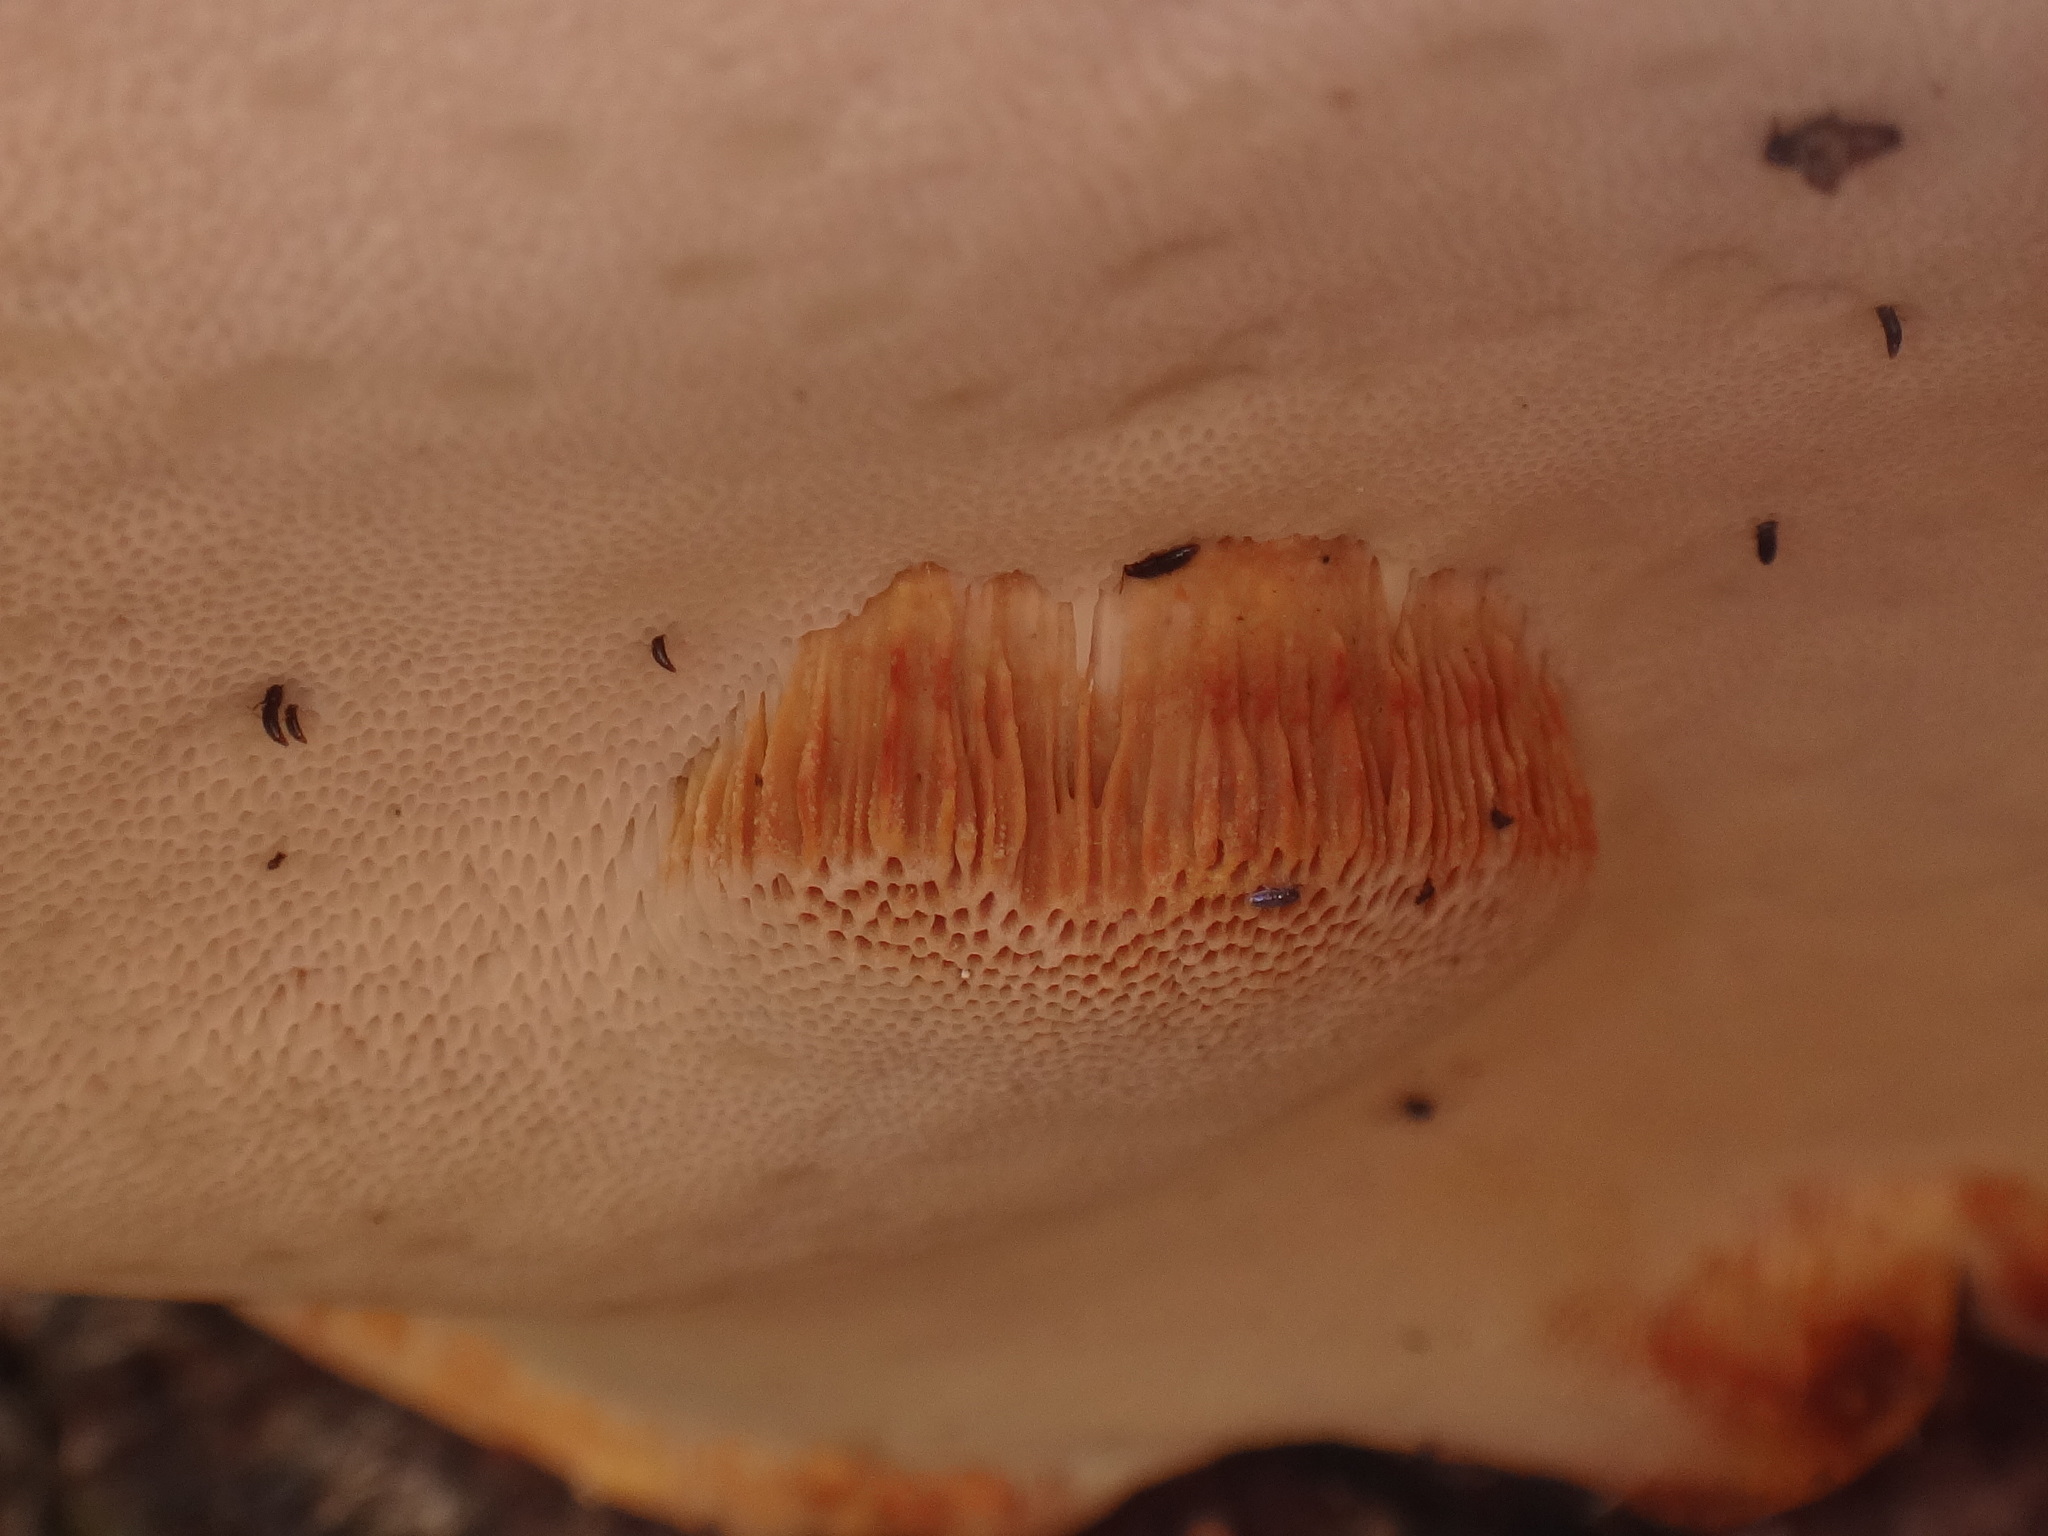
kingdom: Fungi
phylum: Basidiomycota
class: Agaricomycetes
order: Polyporales
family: Fomitopsidaceae
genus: Fomitopsis
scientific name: Fomitopsis pinicola
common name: Red-belted bracket
